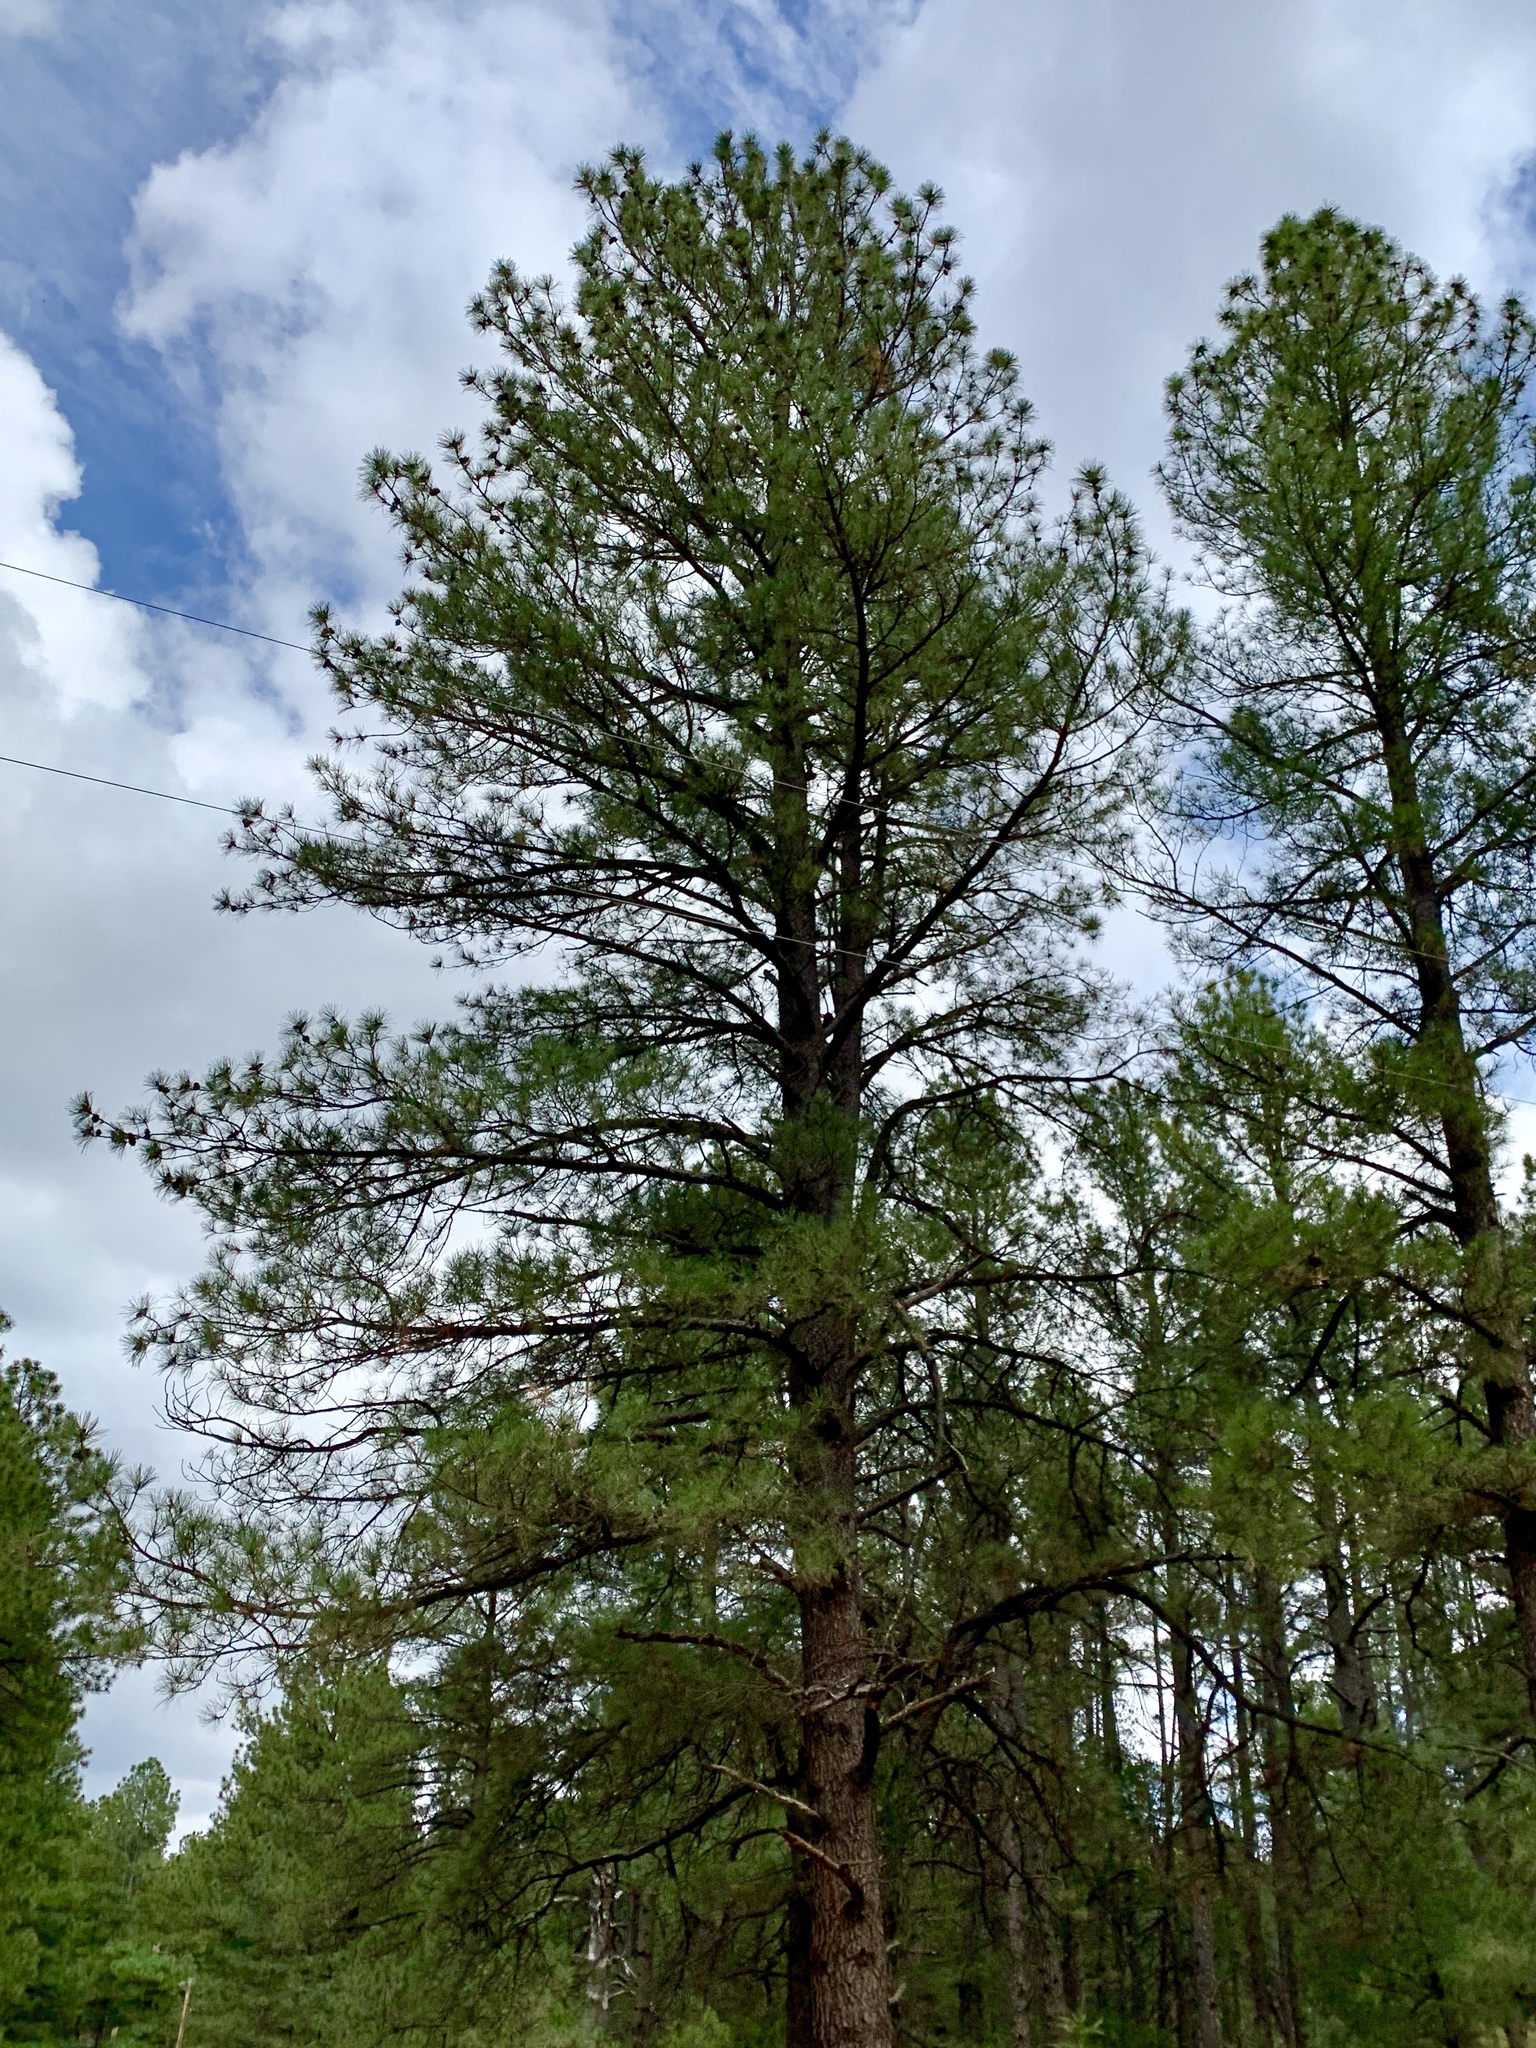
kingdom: Plantae
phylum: Tracheophyta
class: Pinopsida
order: Pinales
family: Pinaceae
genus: Pinus
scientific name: Pinus ponderosa
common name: Western yellow-pine
